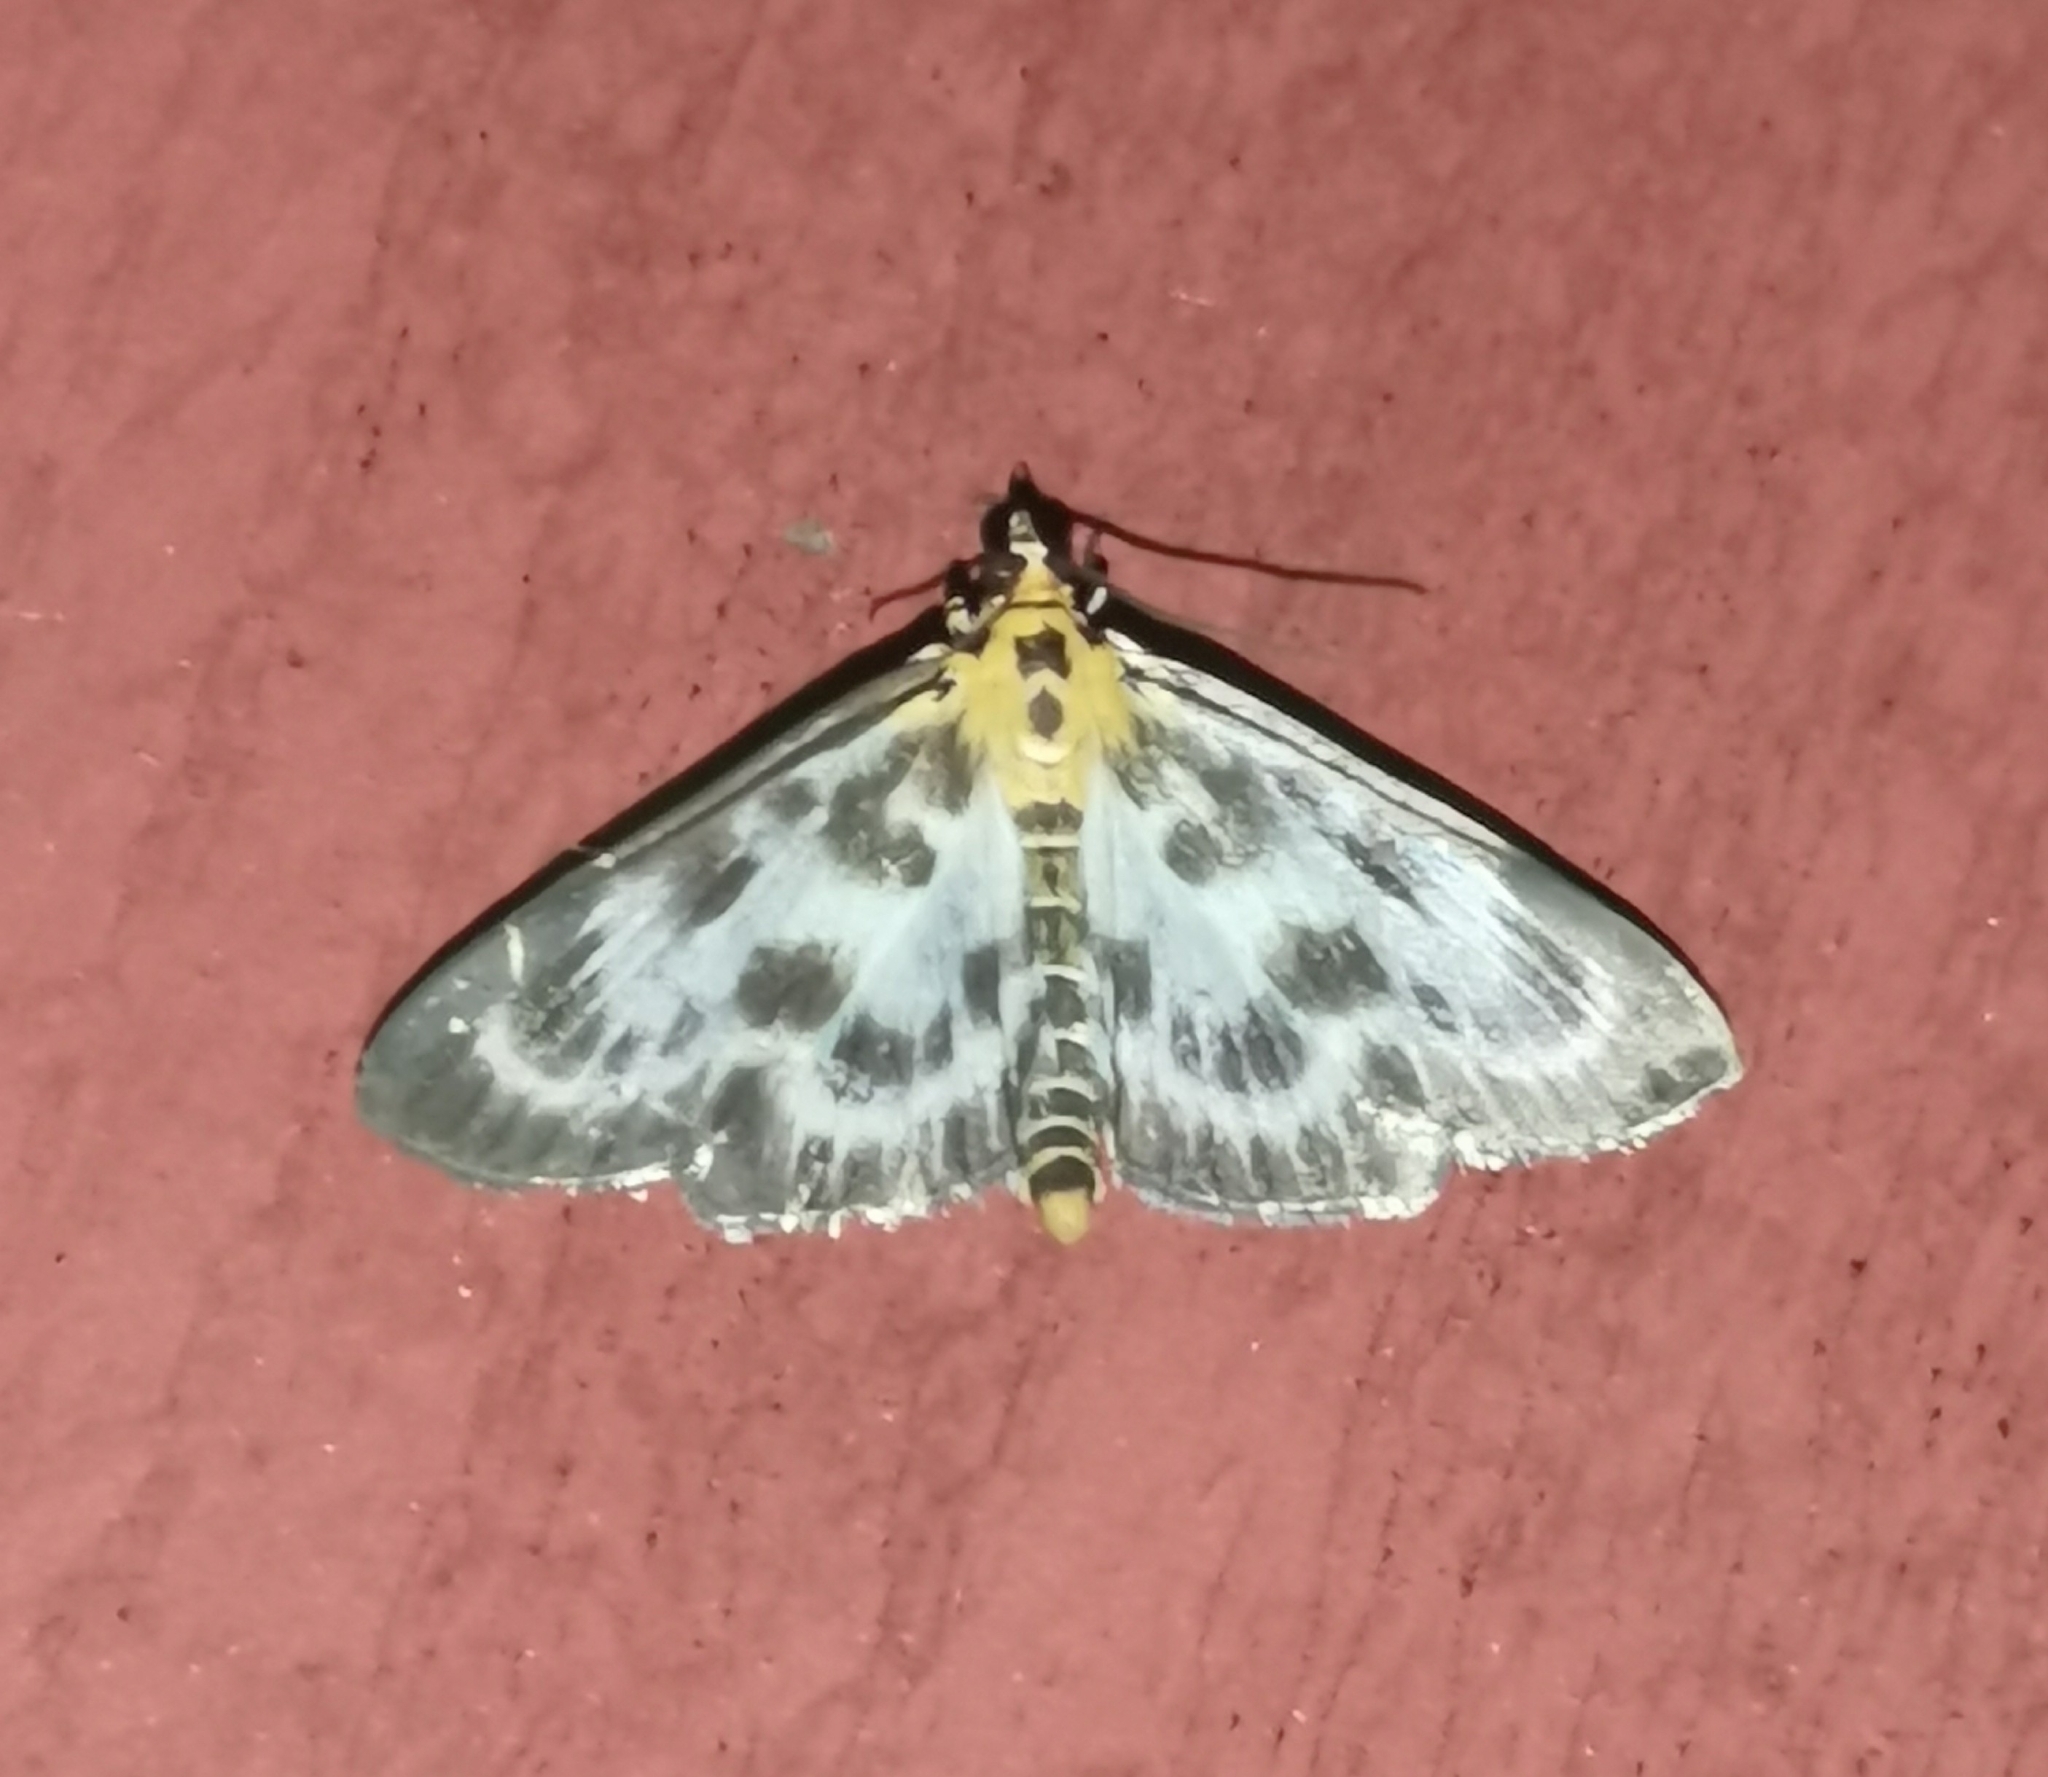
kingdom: Animalia
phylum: Arthropoda
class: Insecta
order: Lepidoptera
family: Crambidae
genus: Anania
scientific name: Anania hortulata
